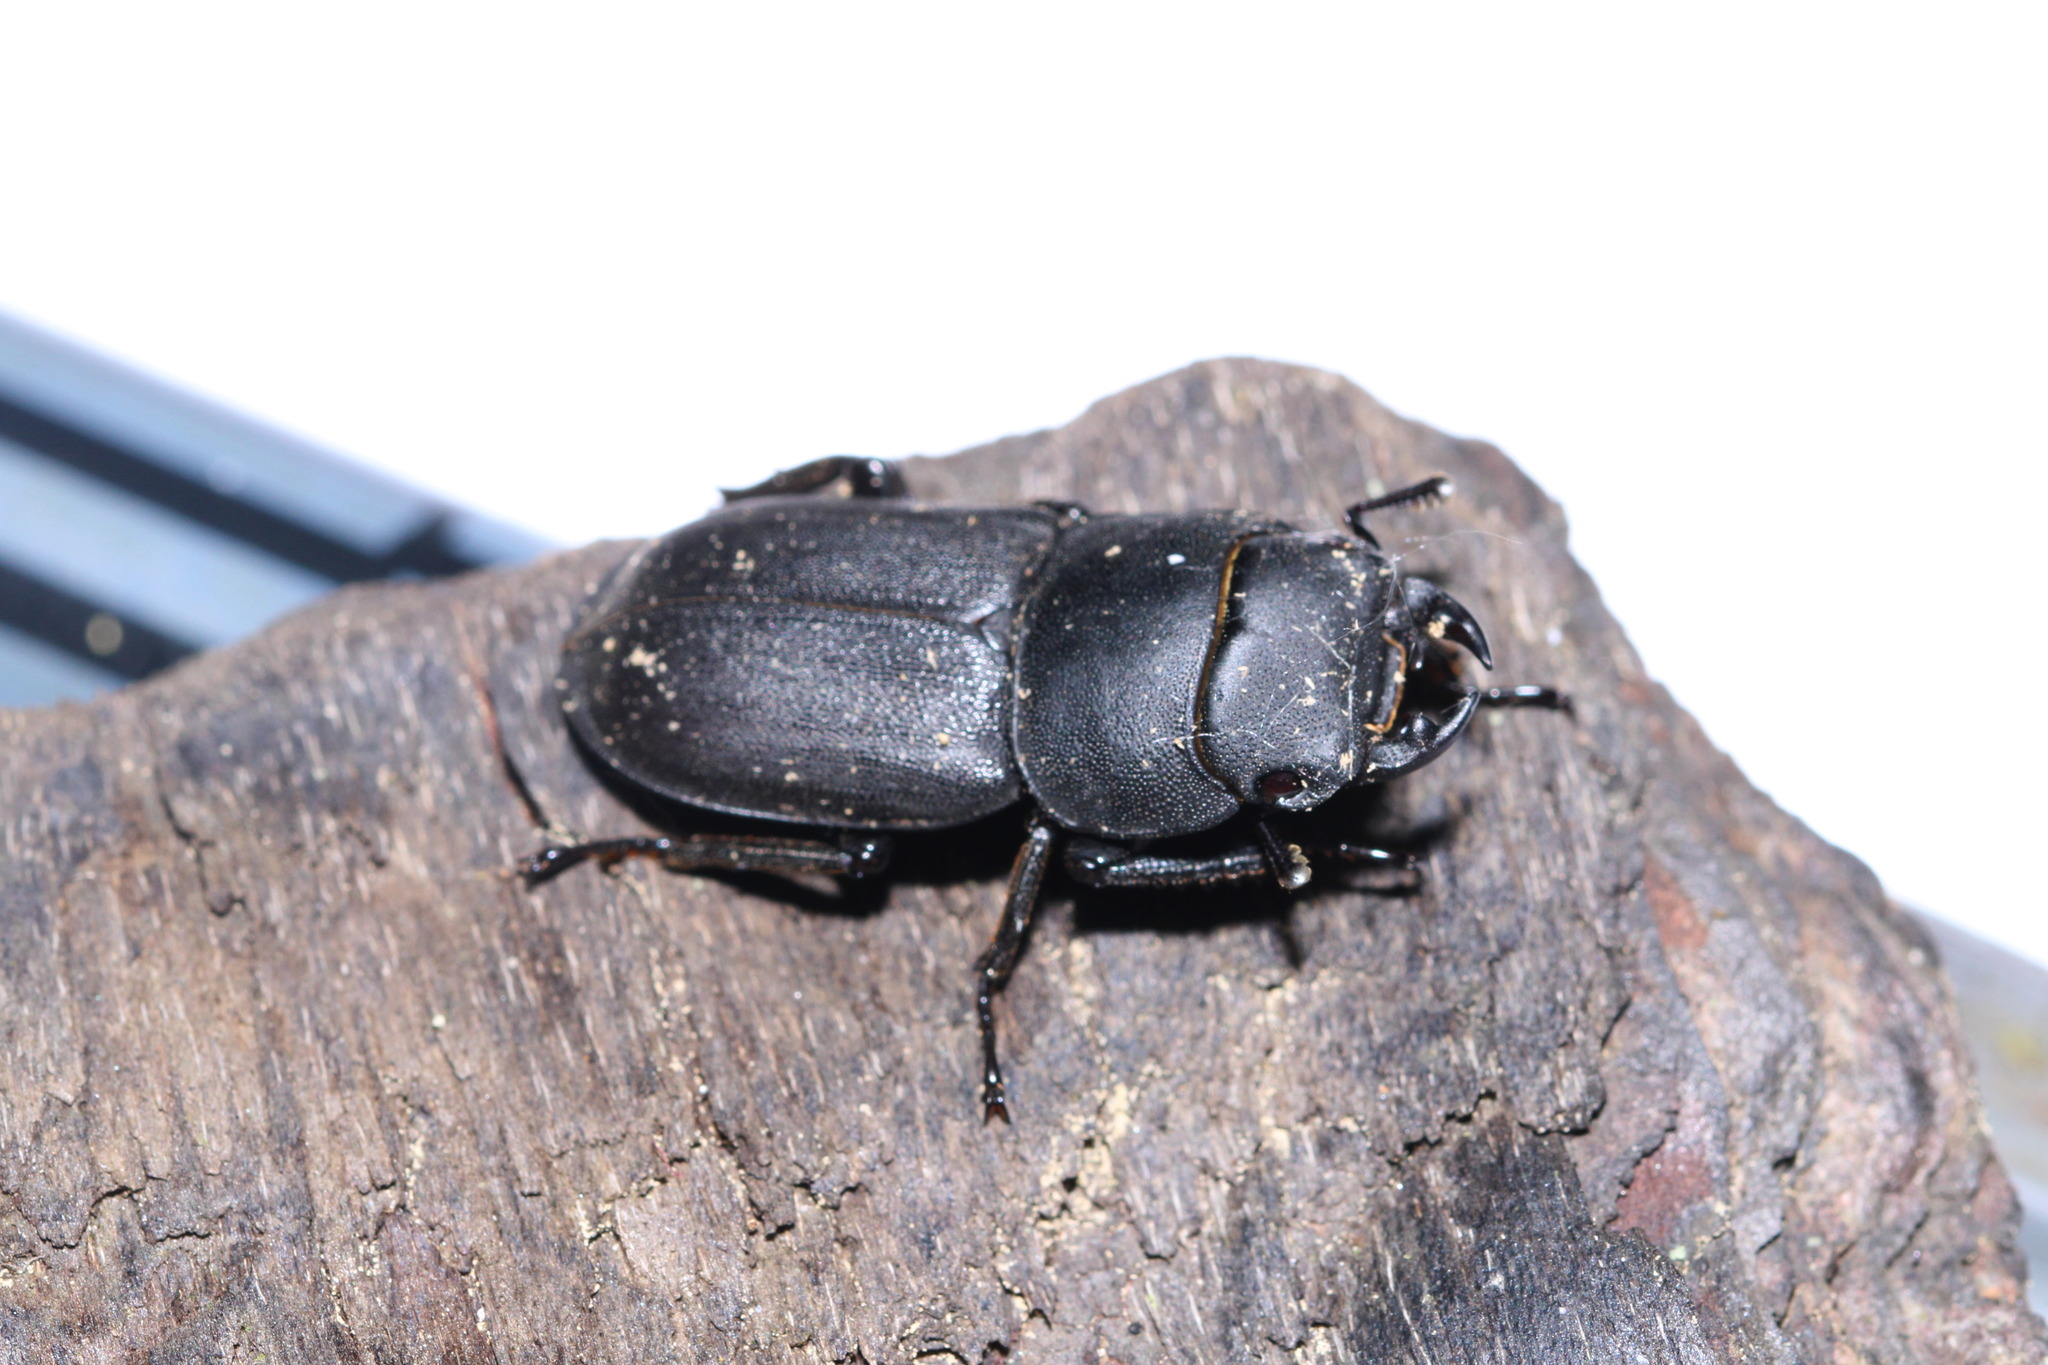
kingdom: Animalia
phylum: Arthropoda
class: Insecta
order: Coleoptera
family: Lucanidae
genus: Dorcus
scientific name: Dorcus parallelipipedus
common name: Lesser stag beetle
